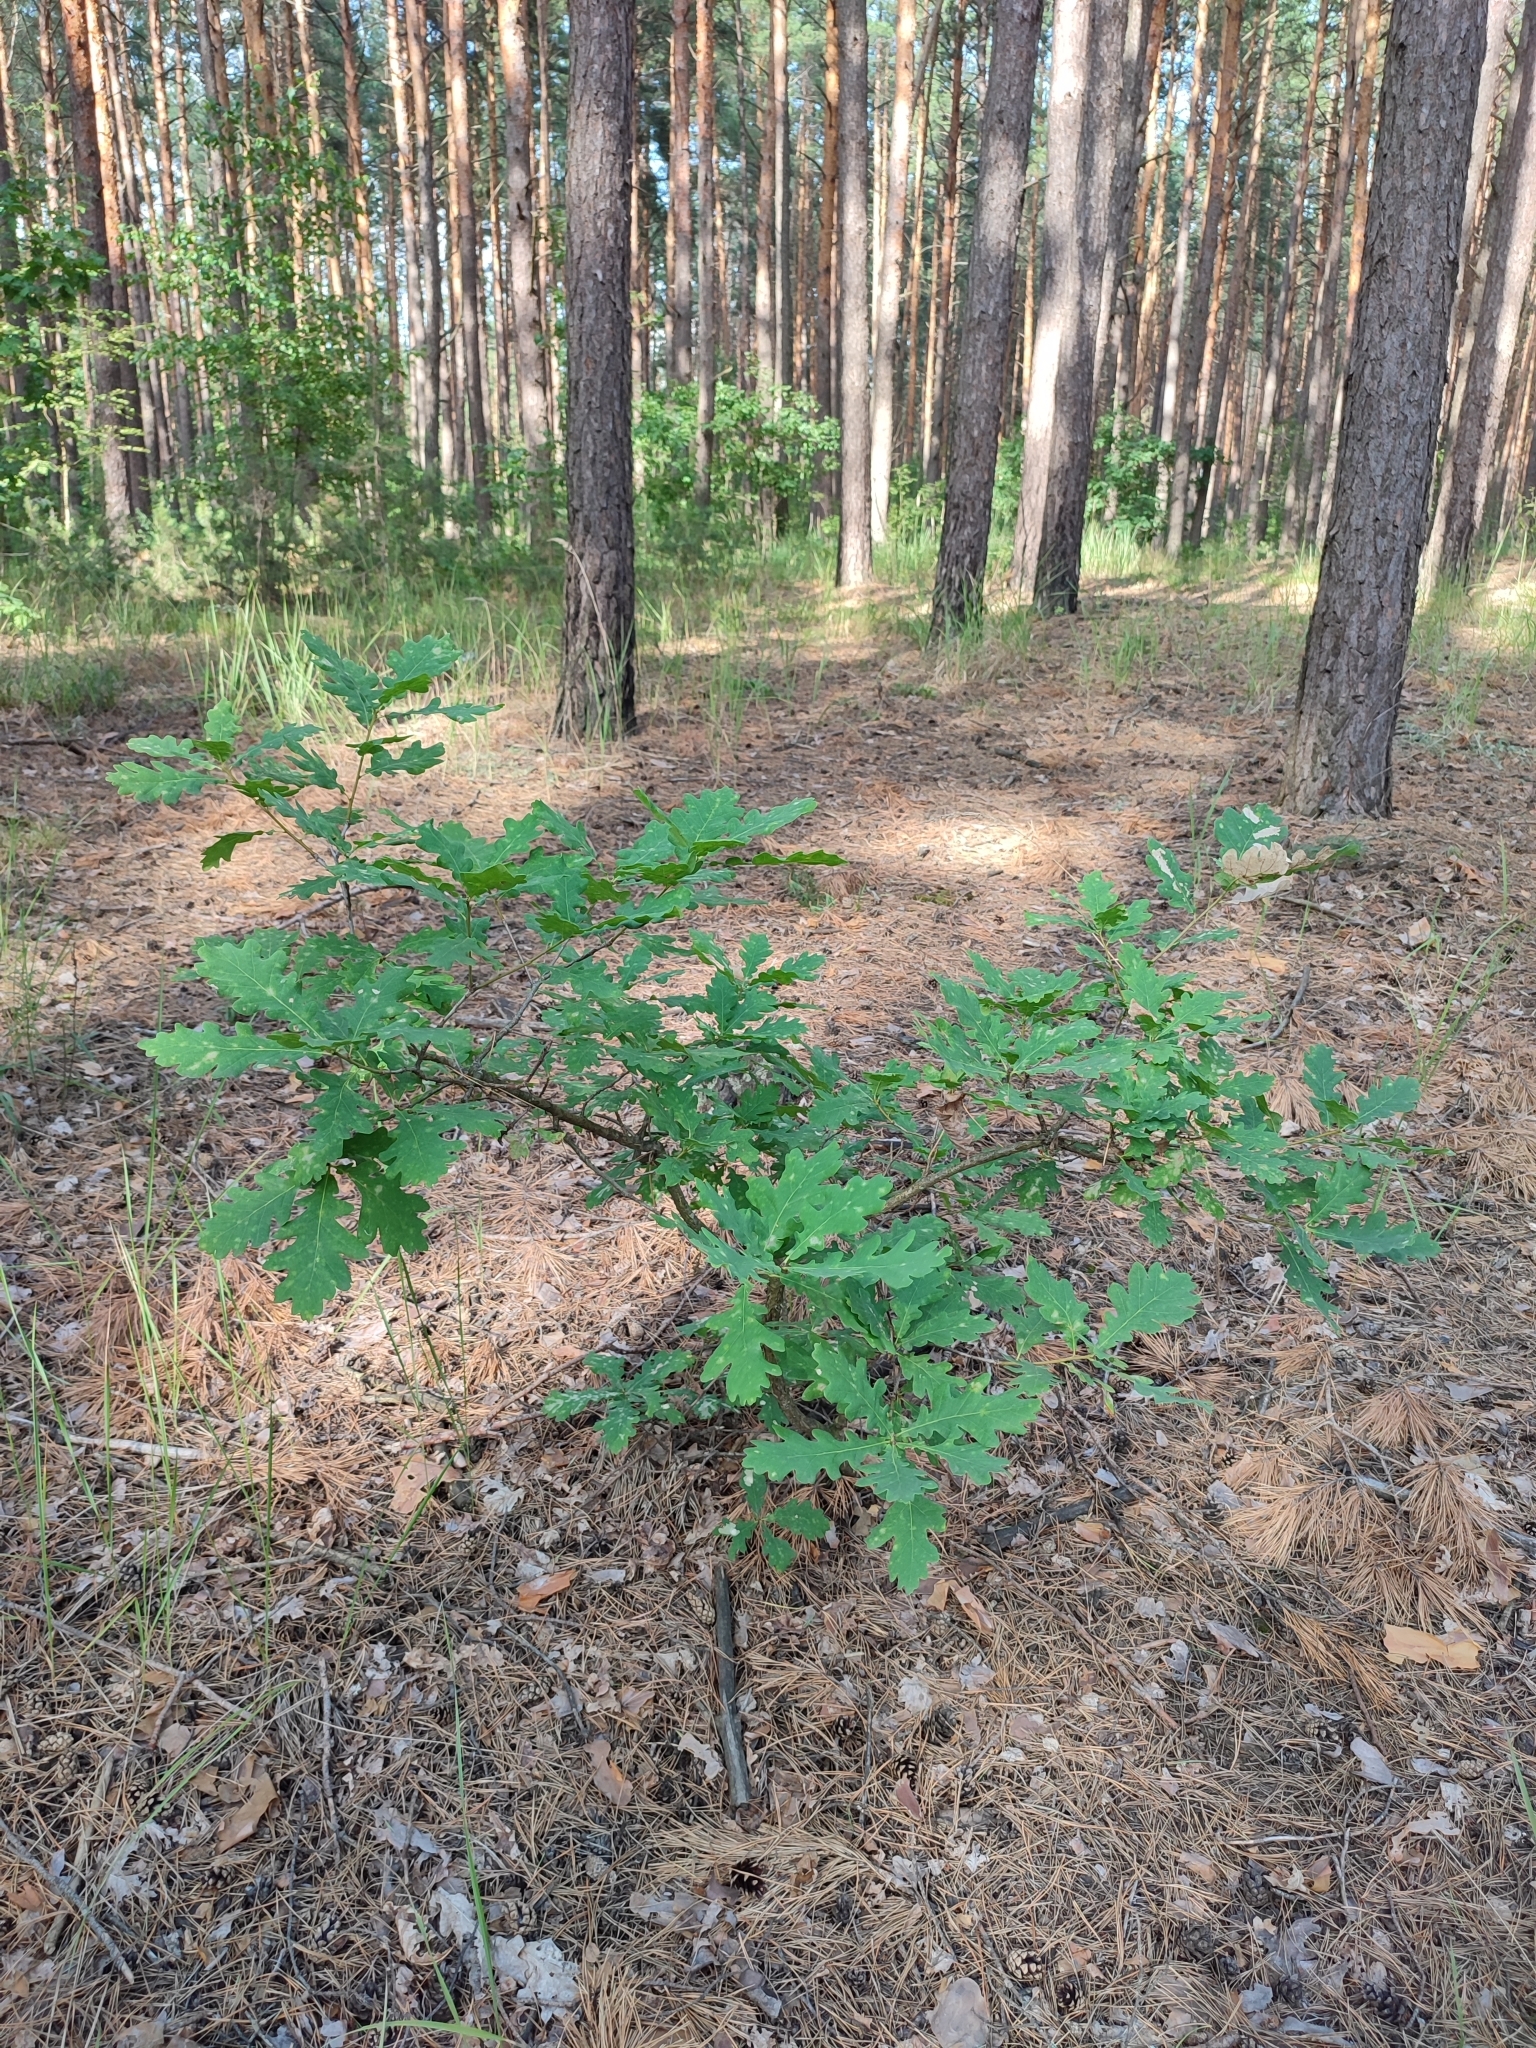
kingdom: Plantae
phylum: Tracheophyta
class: Magnoliopsida
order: Fagales
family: Fagaceae
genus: Quercus
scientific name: Quercus robur
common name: Pedunculate oak
